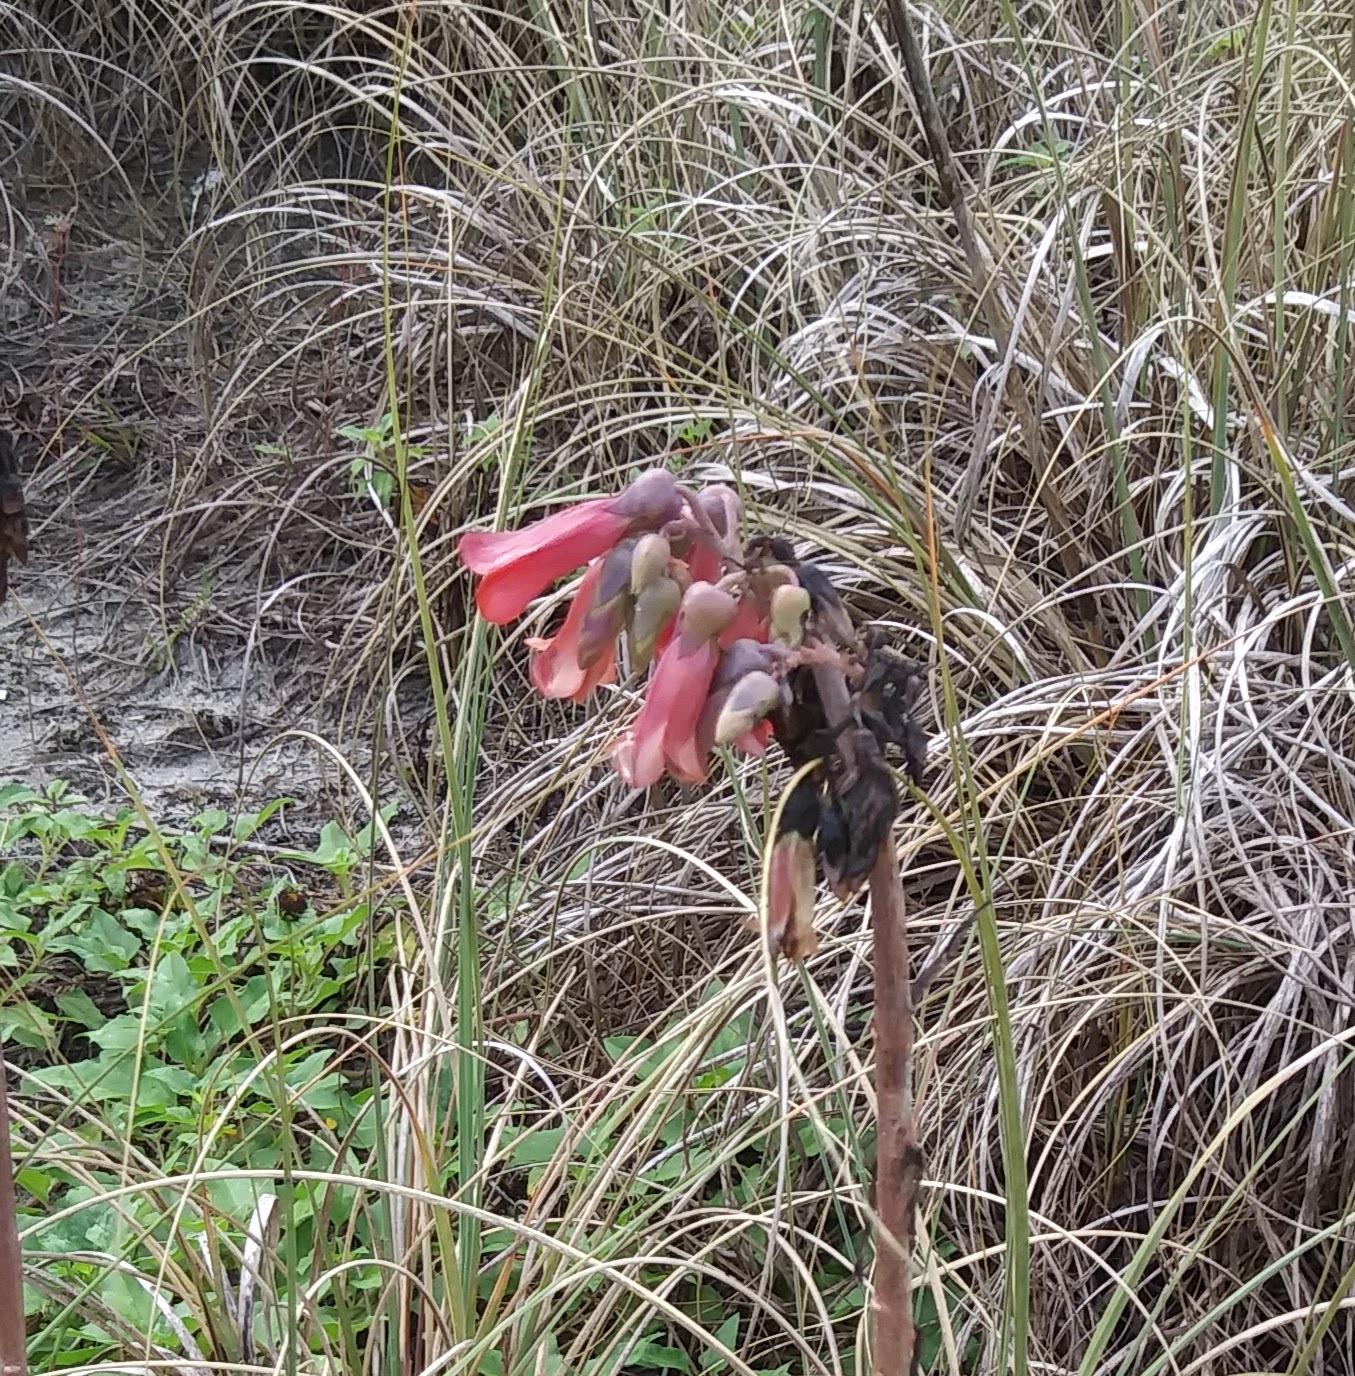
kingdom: Chromista
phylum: Ciliophora
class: Gymnostomatea
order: Spathidiida
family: Spathidiidae
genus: Bryophyllum
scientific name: Bryophyllum
